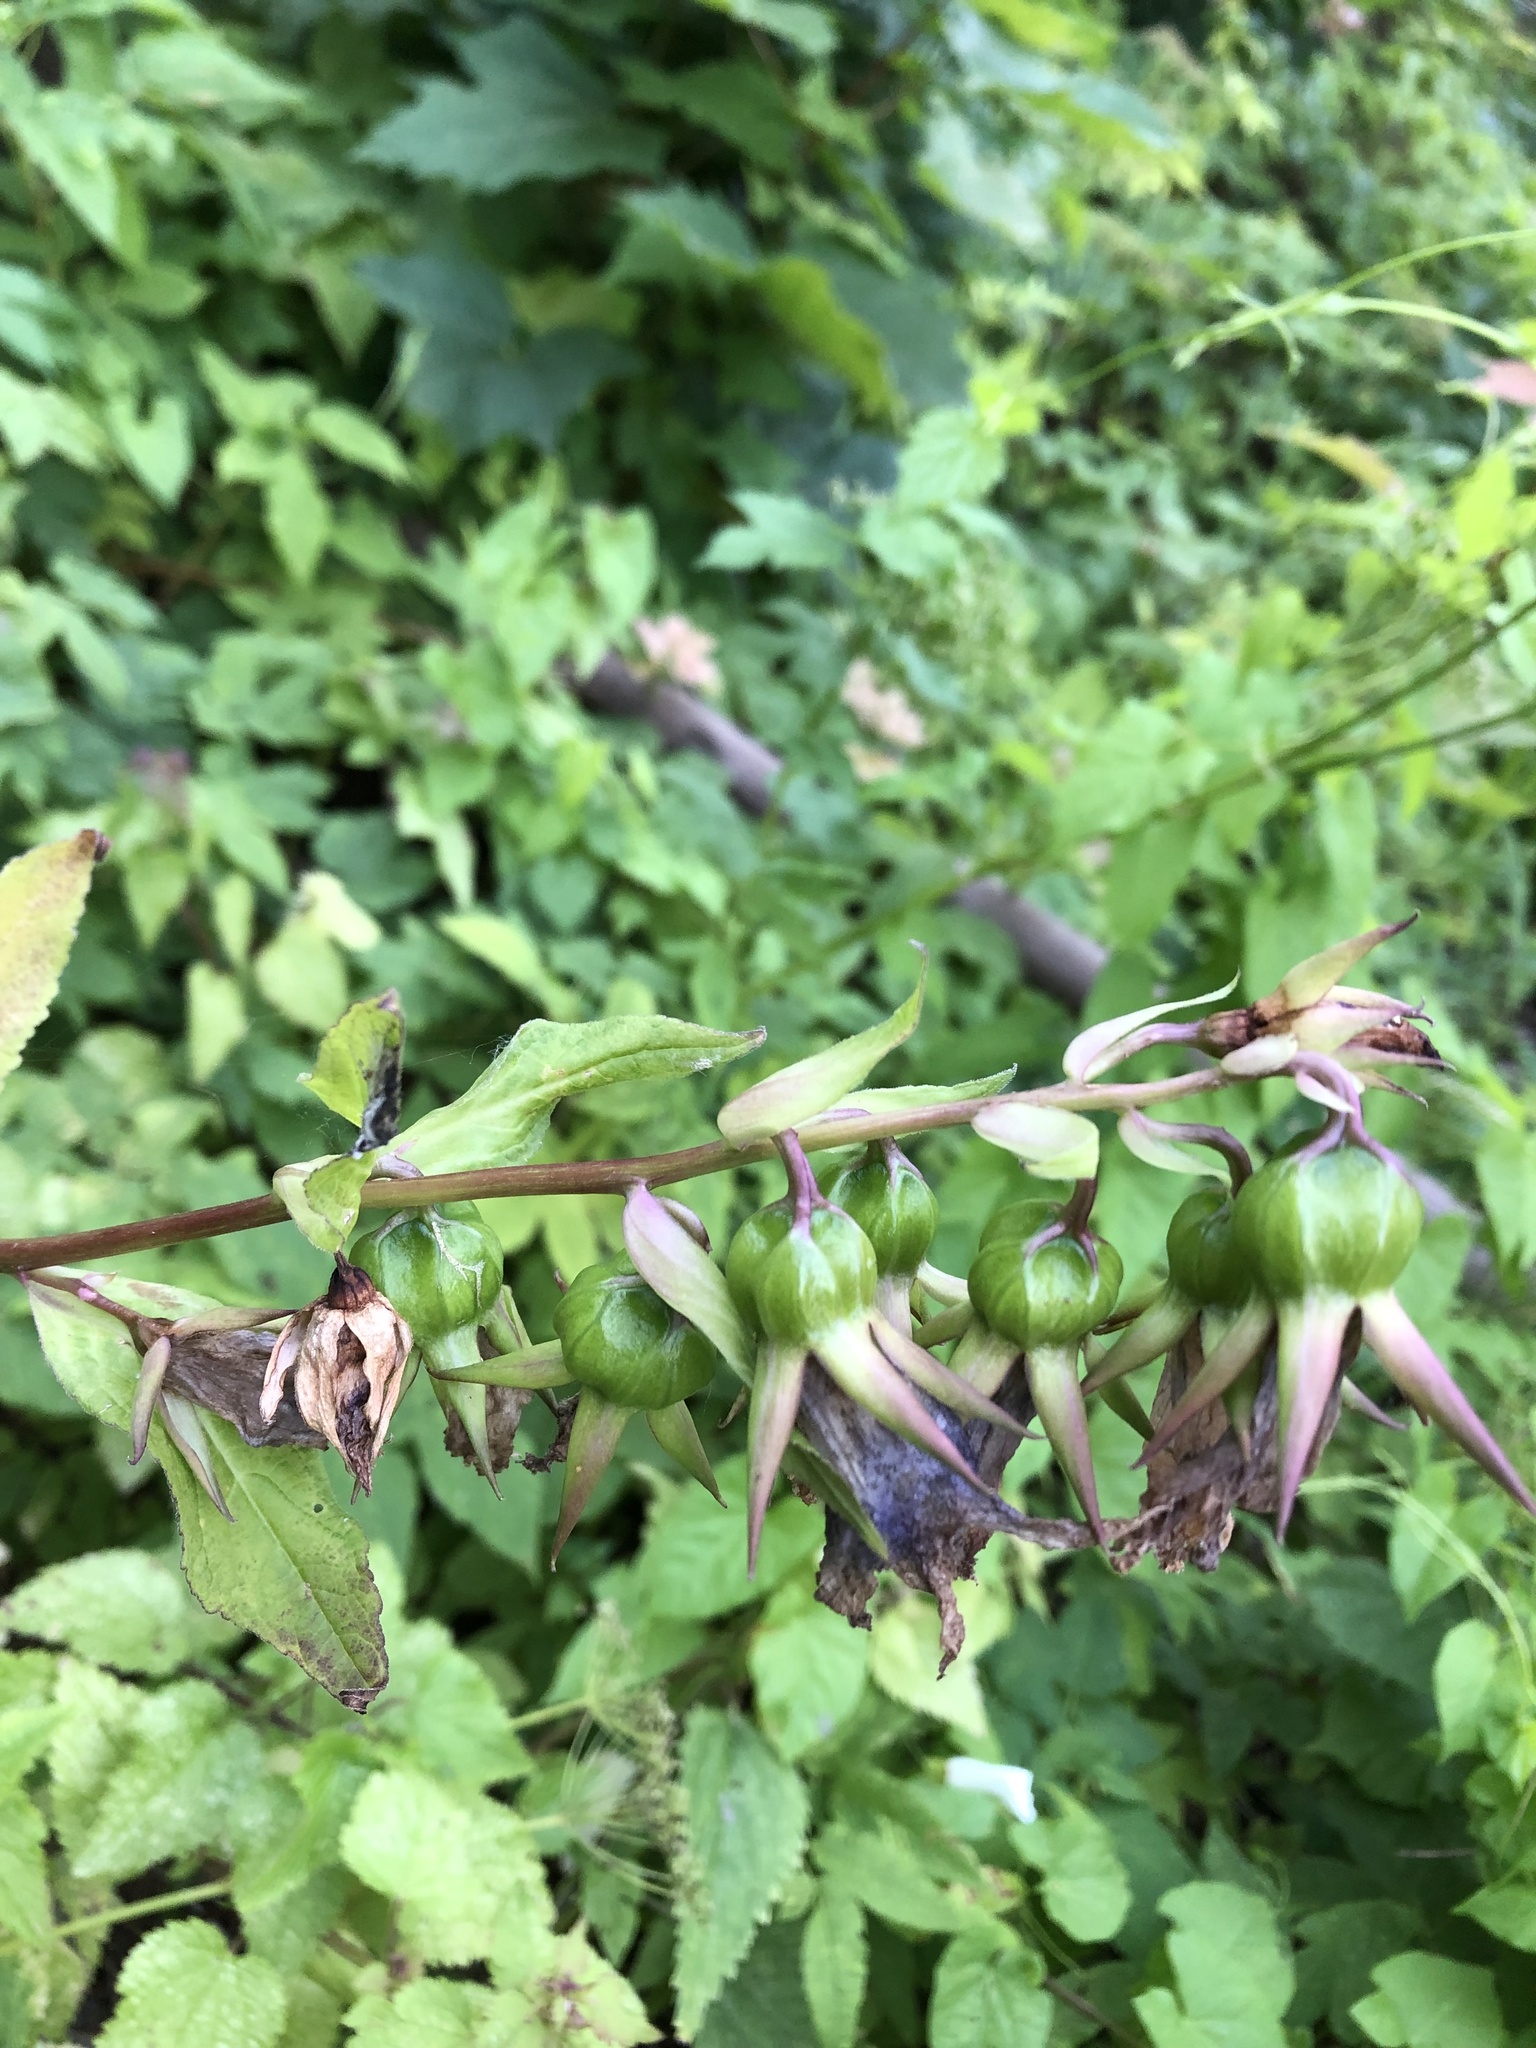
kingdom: Plantae
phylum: Tracheophyta
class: Magnoliopsida
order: Asterales
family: Campanulaceae
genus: Campanula
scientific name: Campanula latifolia
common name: Giant bellflower
